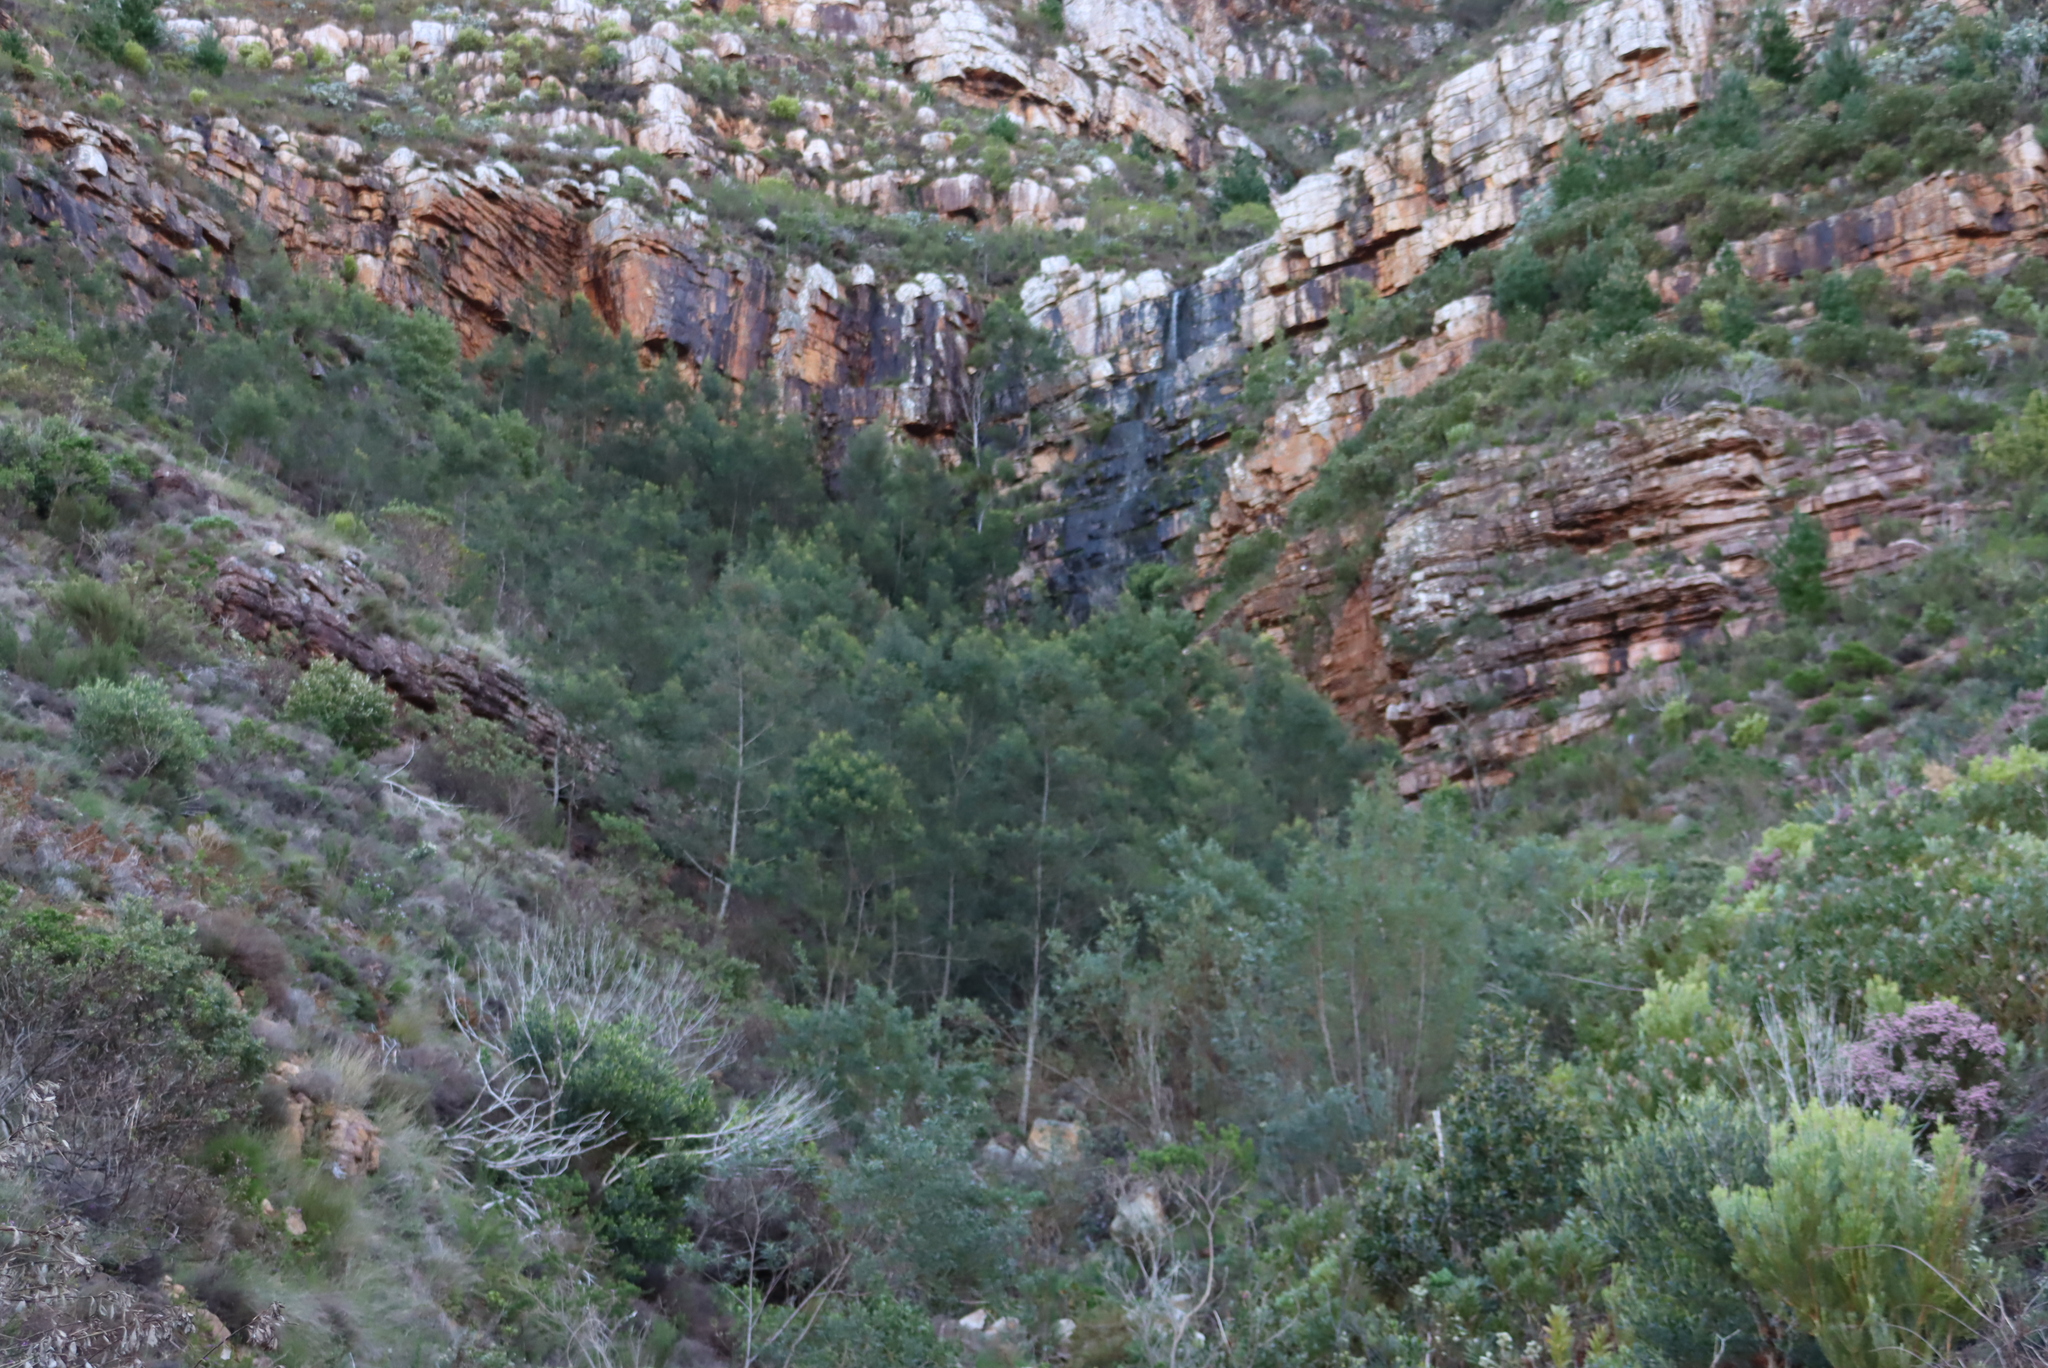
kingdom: Plantae
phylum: Tracheophyta
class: Magnoliopsida
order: Fabales
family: Fabaceae
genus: Acacia
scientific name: Acacia mearnsii
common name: Black wattle
